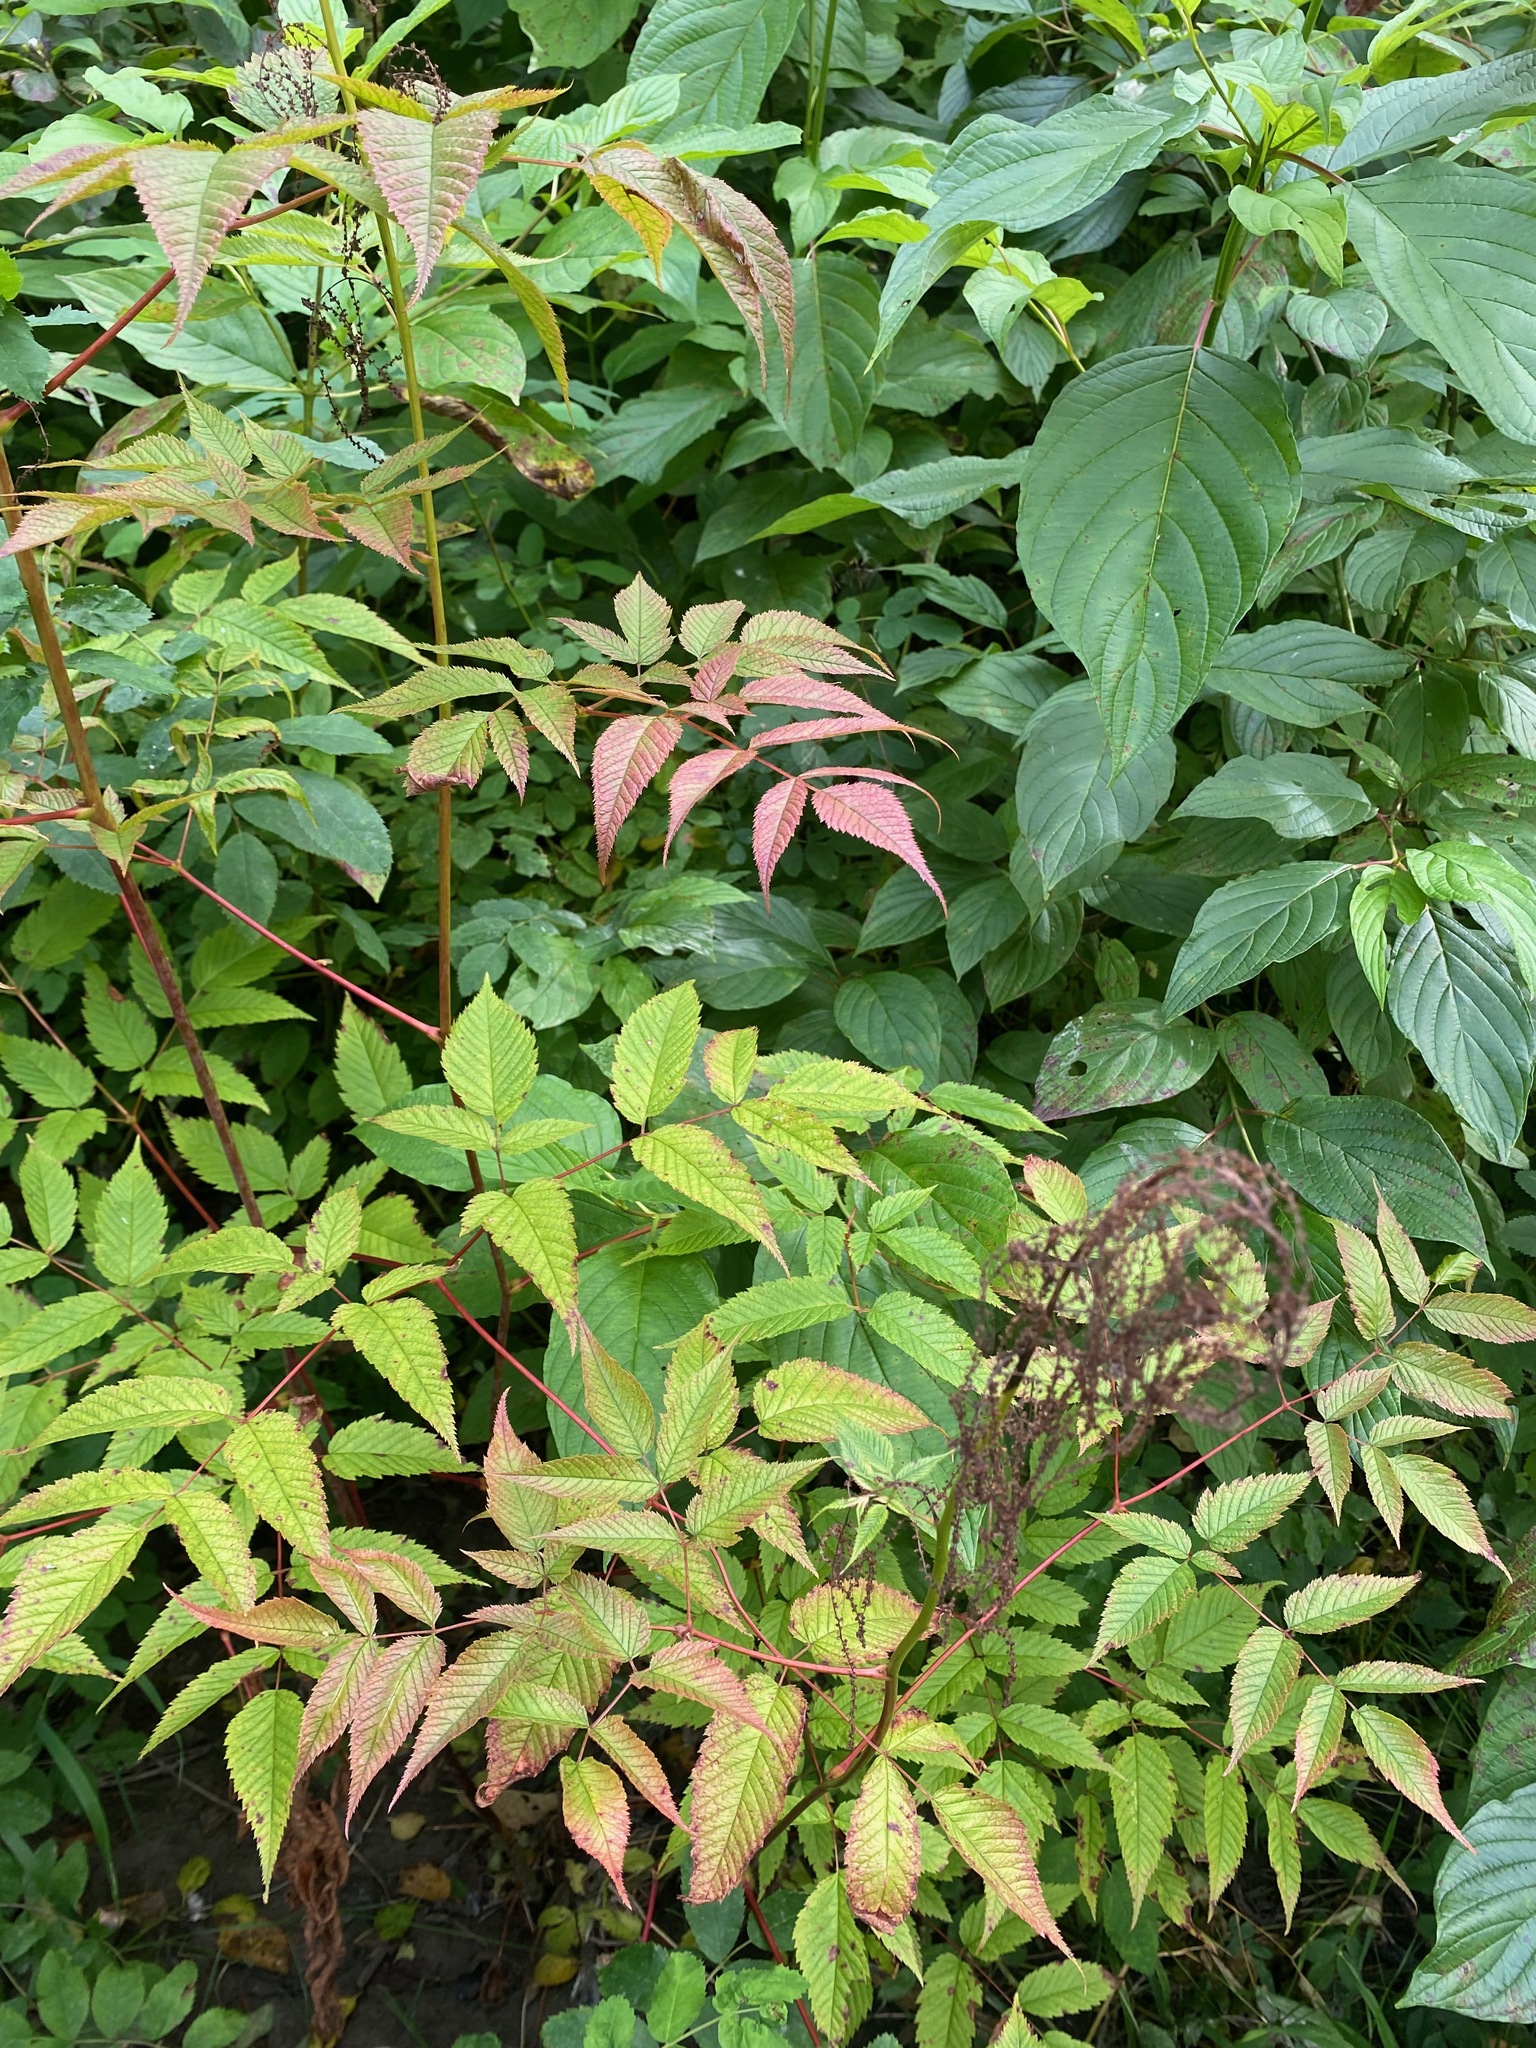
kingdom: Plantae
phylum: Tracheophyta
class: Magnoliopsida
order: Rosales
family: Rosaceae
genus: Aruncus
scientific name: Aruncus dioicus
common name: Buck's-beard
